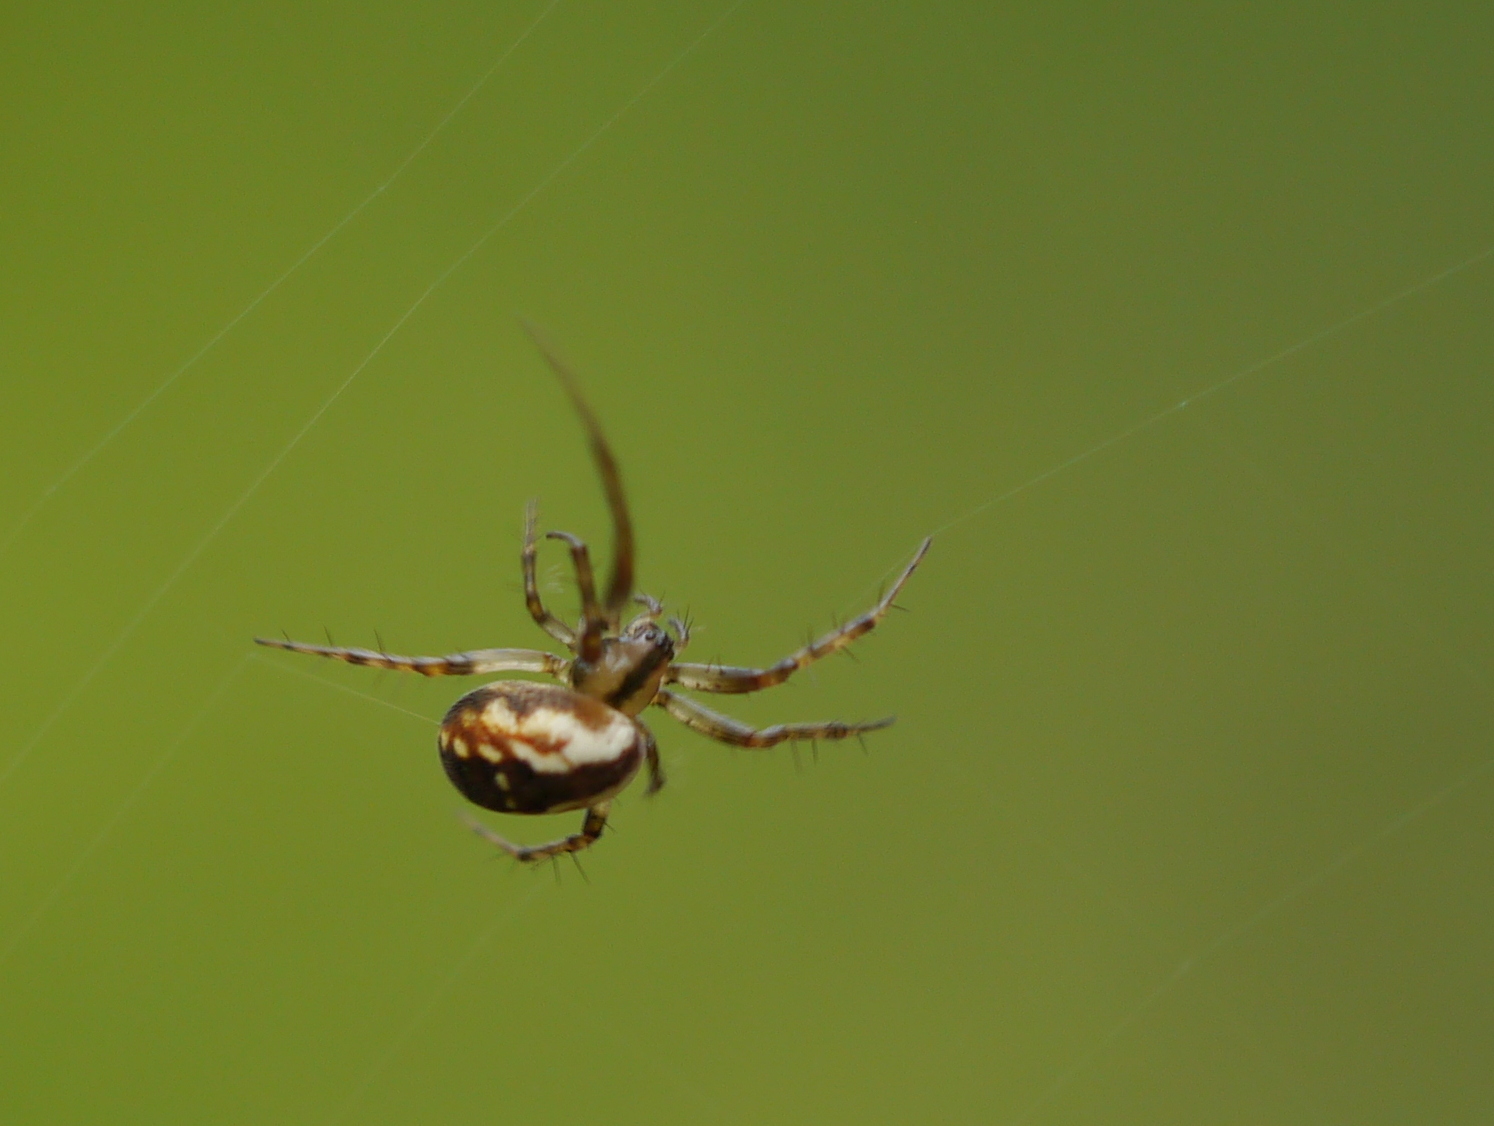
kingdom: Animalia
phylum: Arthropoda
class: Arachnida
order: Araneae
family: Araneidae
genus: Mangora
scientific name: Mangora placida
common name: Tuft-legged orbweaver
